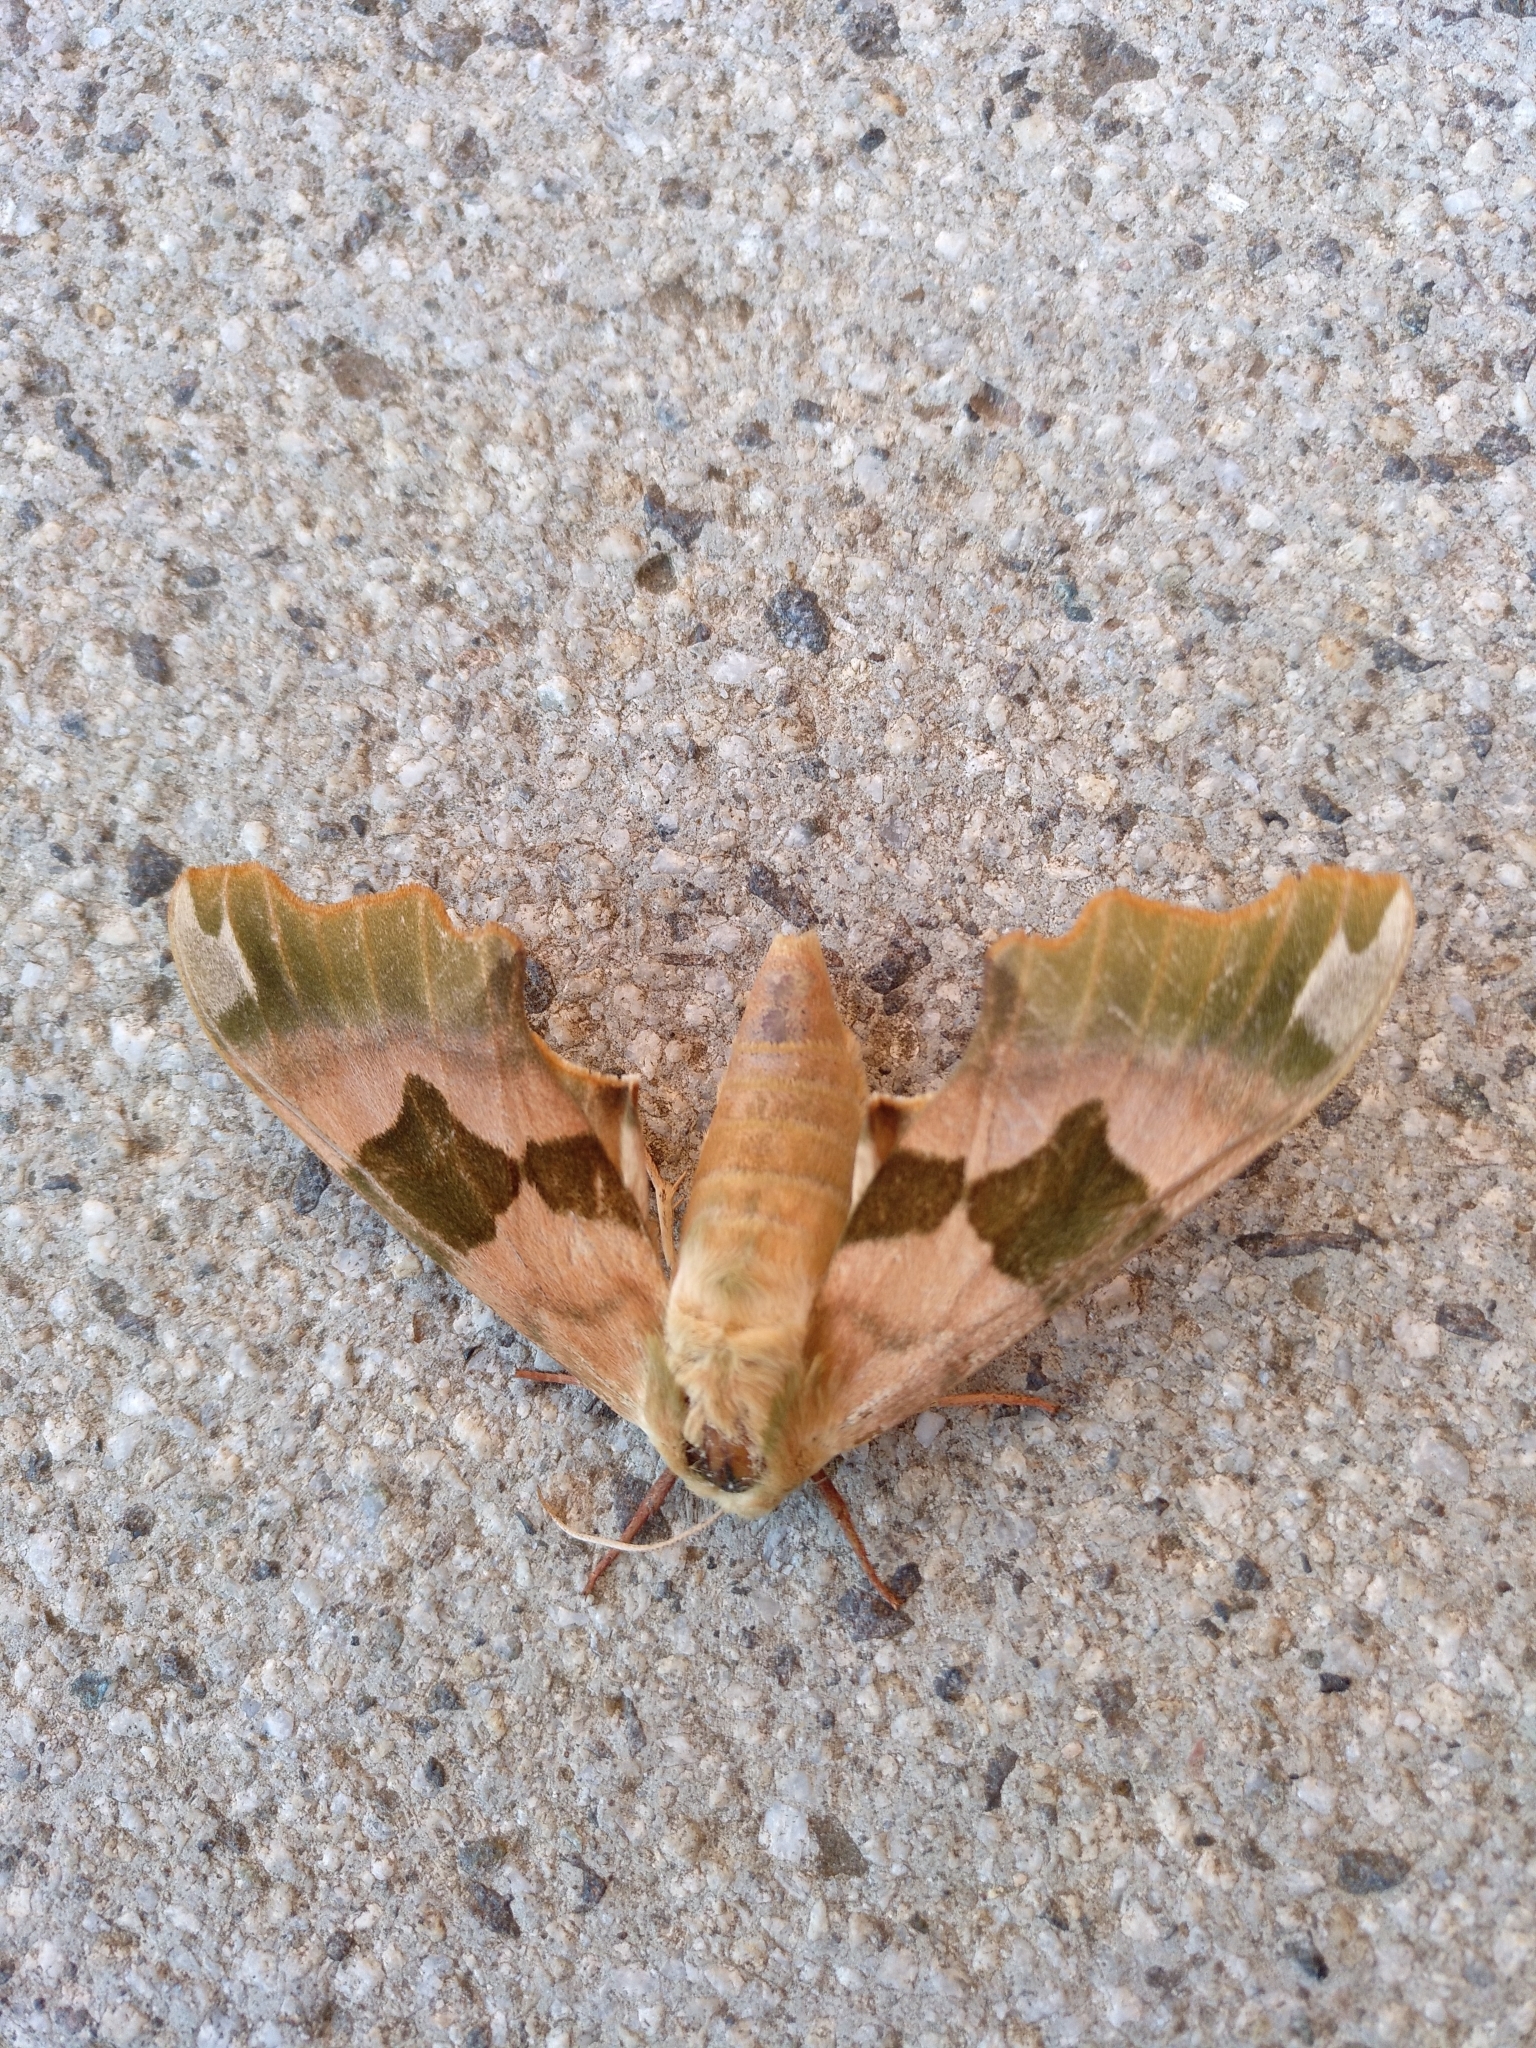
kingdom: Animalia
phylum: Arthropoda
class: Insecta
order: Lepidoptera
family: Sphingidae
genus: Mimas
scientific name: Mimas tiliae
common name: Lime hawk-moth
